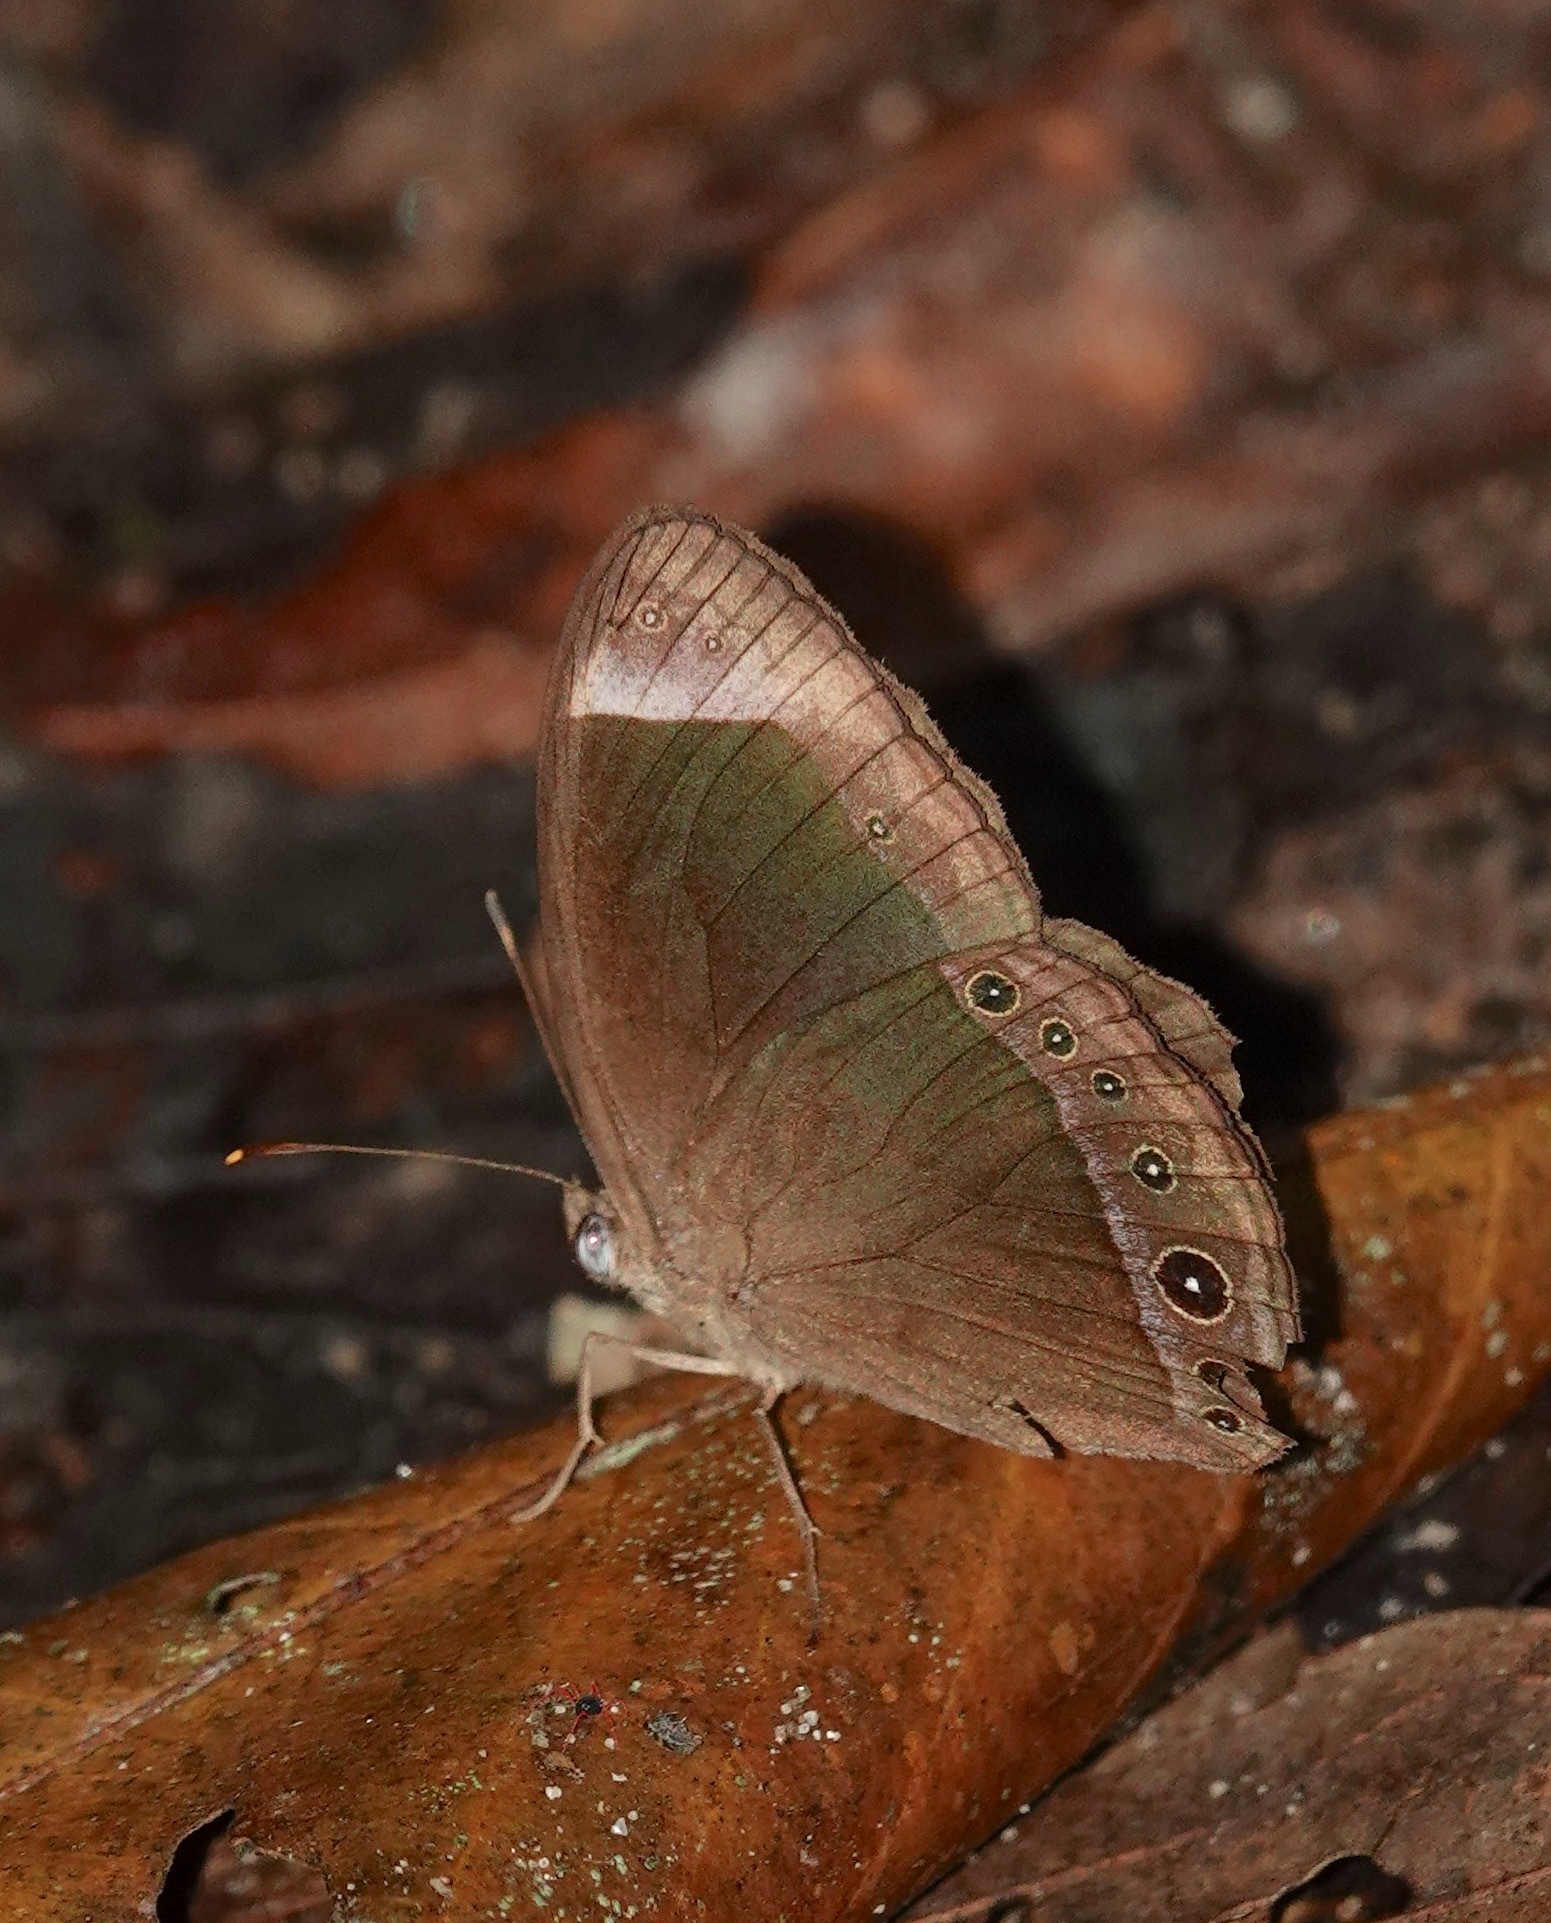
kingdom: Animalia
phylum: Arthropoda
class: Insecta
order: Lepidoptera
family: Nymphalidae
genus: Mycalesis
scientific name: Mycalesis anaxias
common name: White-bar bushbrown
